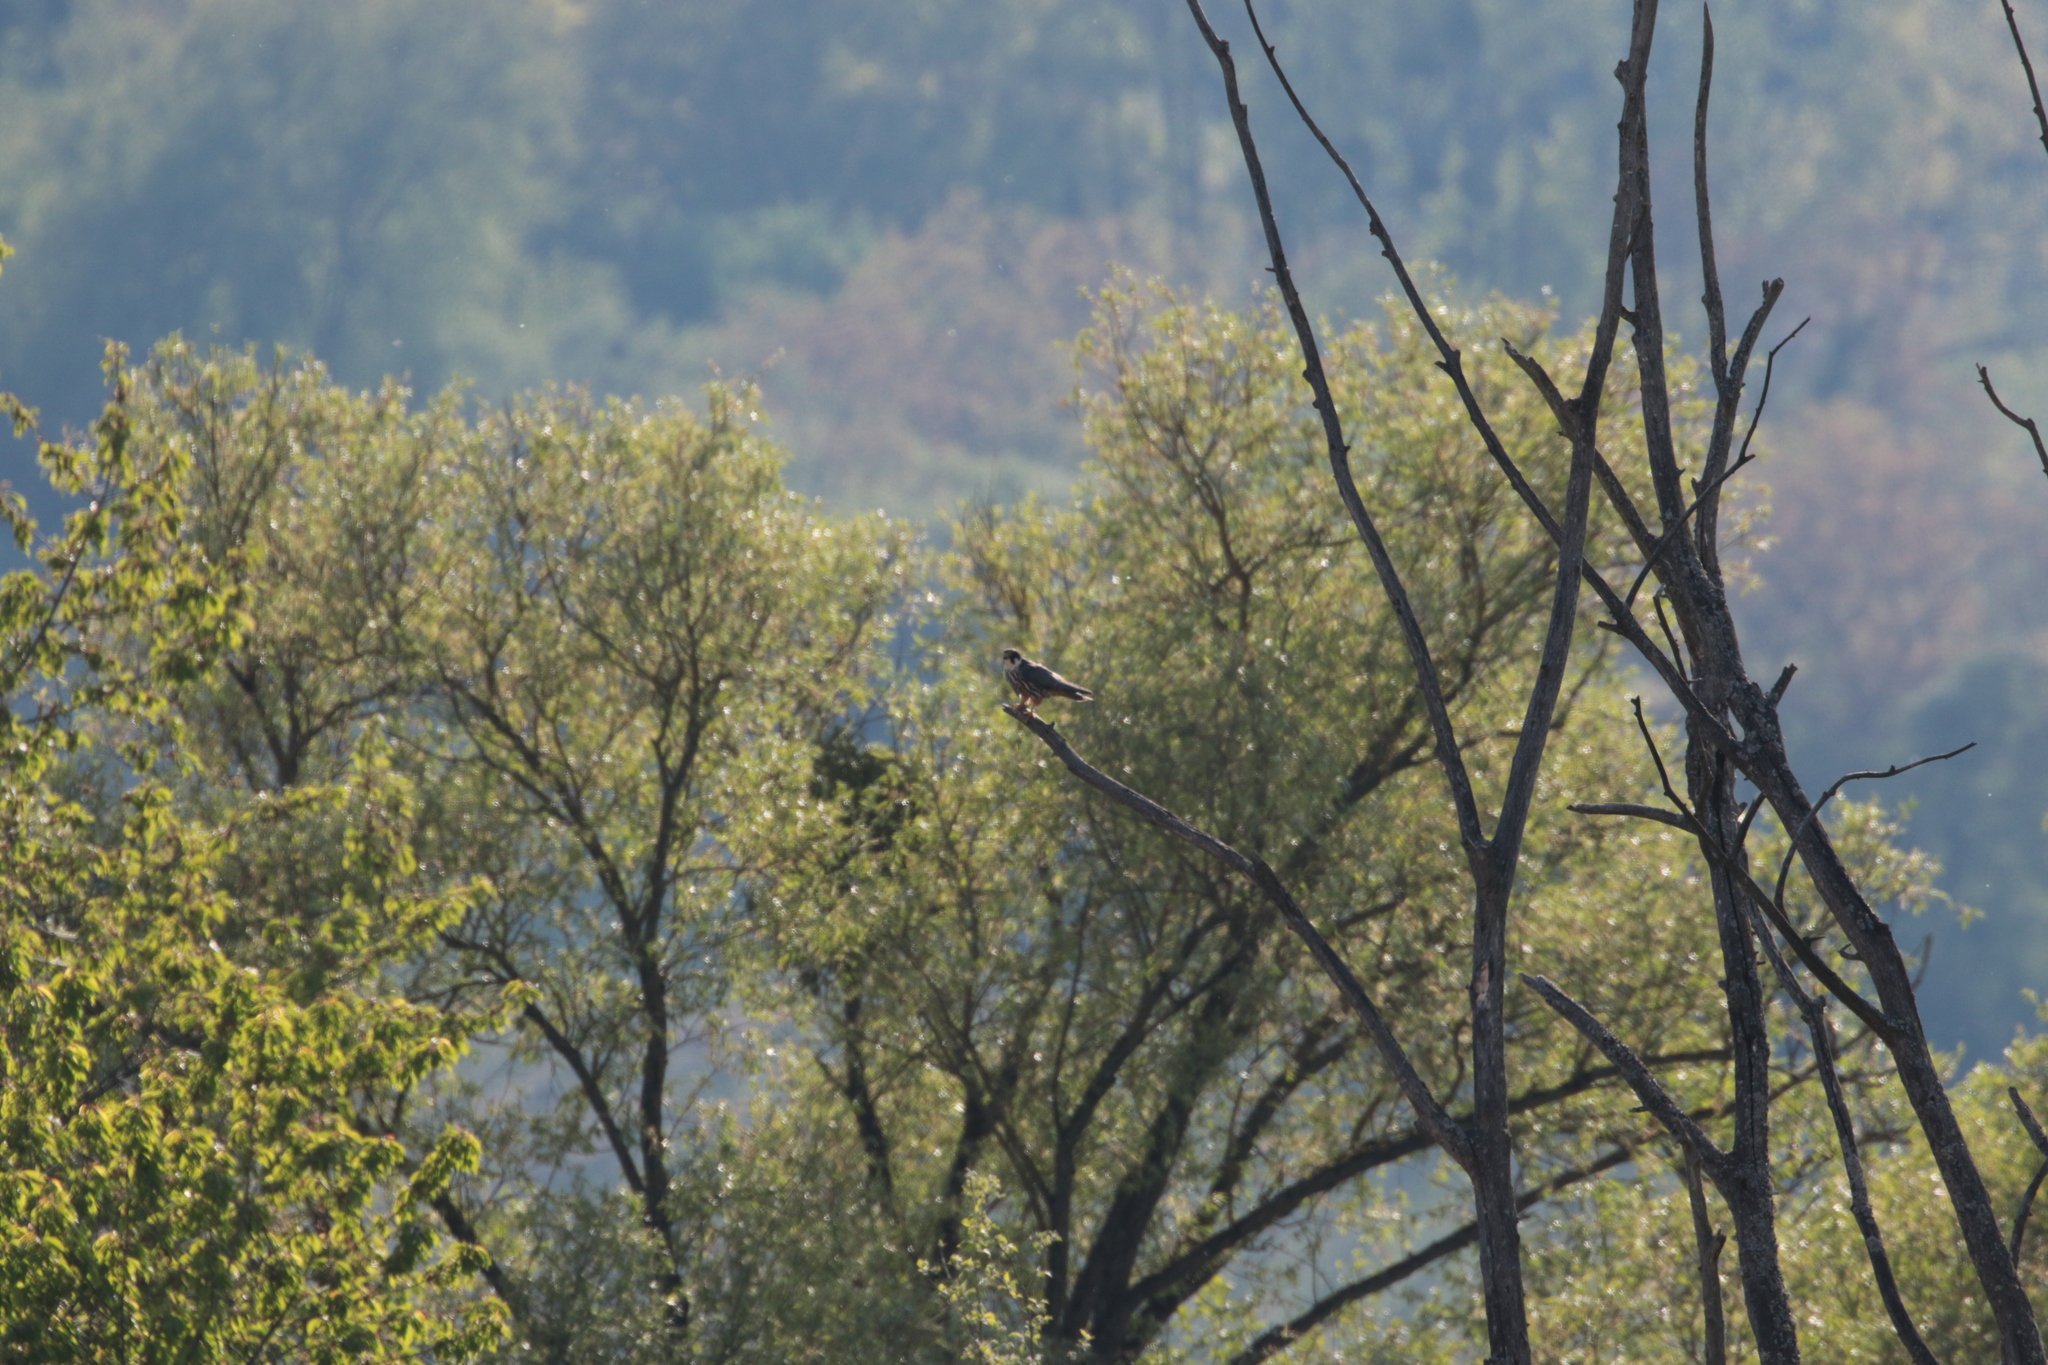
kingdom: Animalia
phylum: Chordata
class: Aves
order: Falconiformes
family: Falconidae
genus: Falco
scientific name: Falco subbuteo
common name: Eurasian hobby
